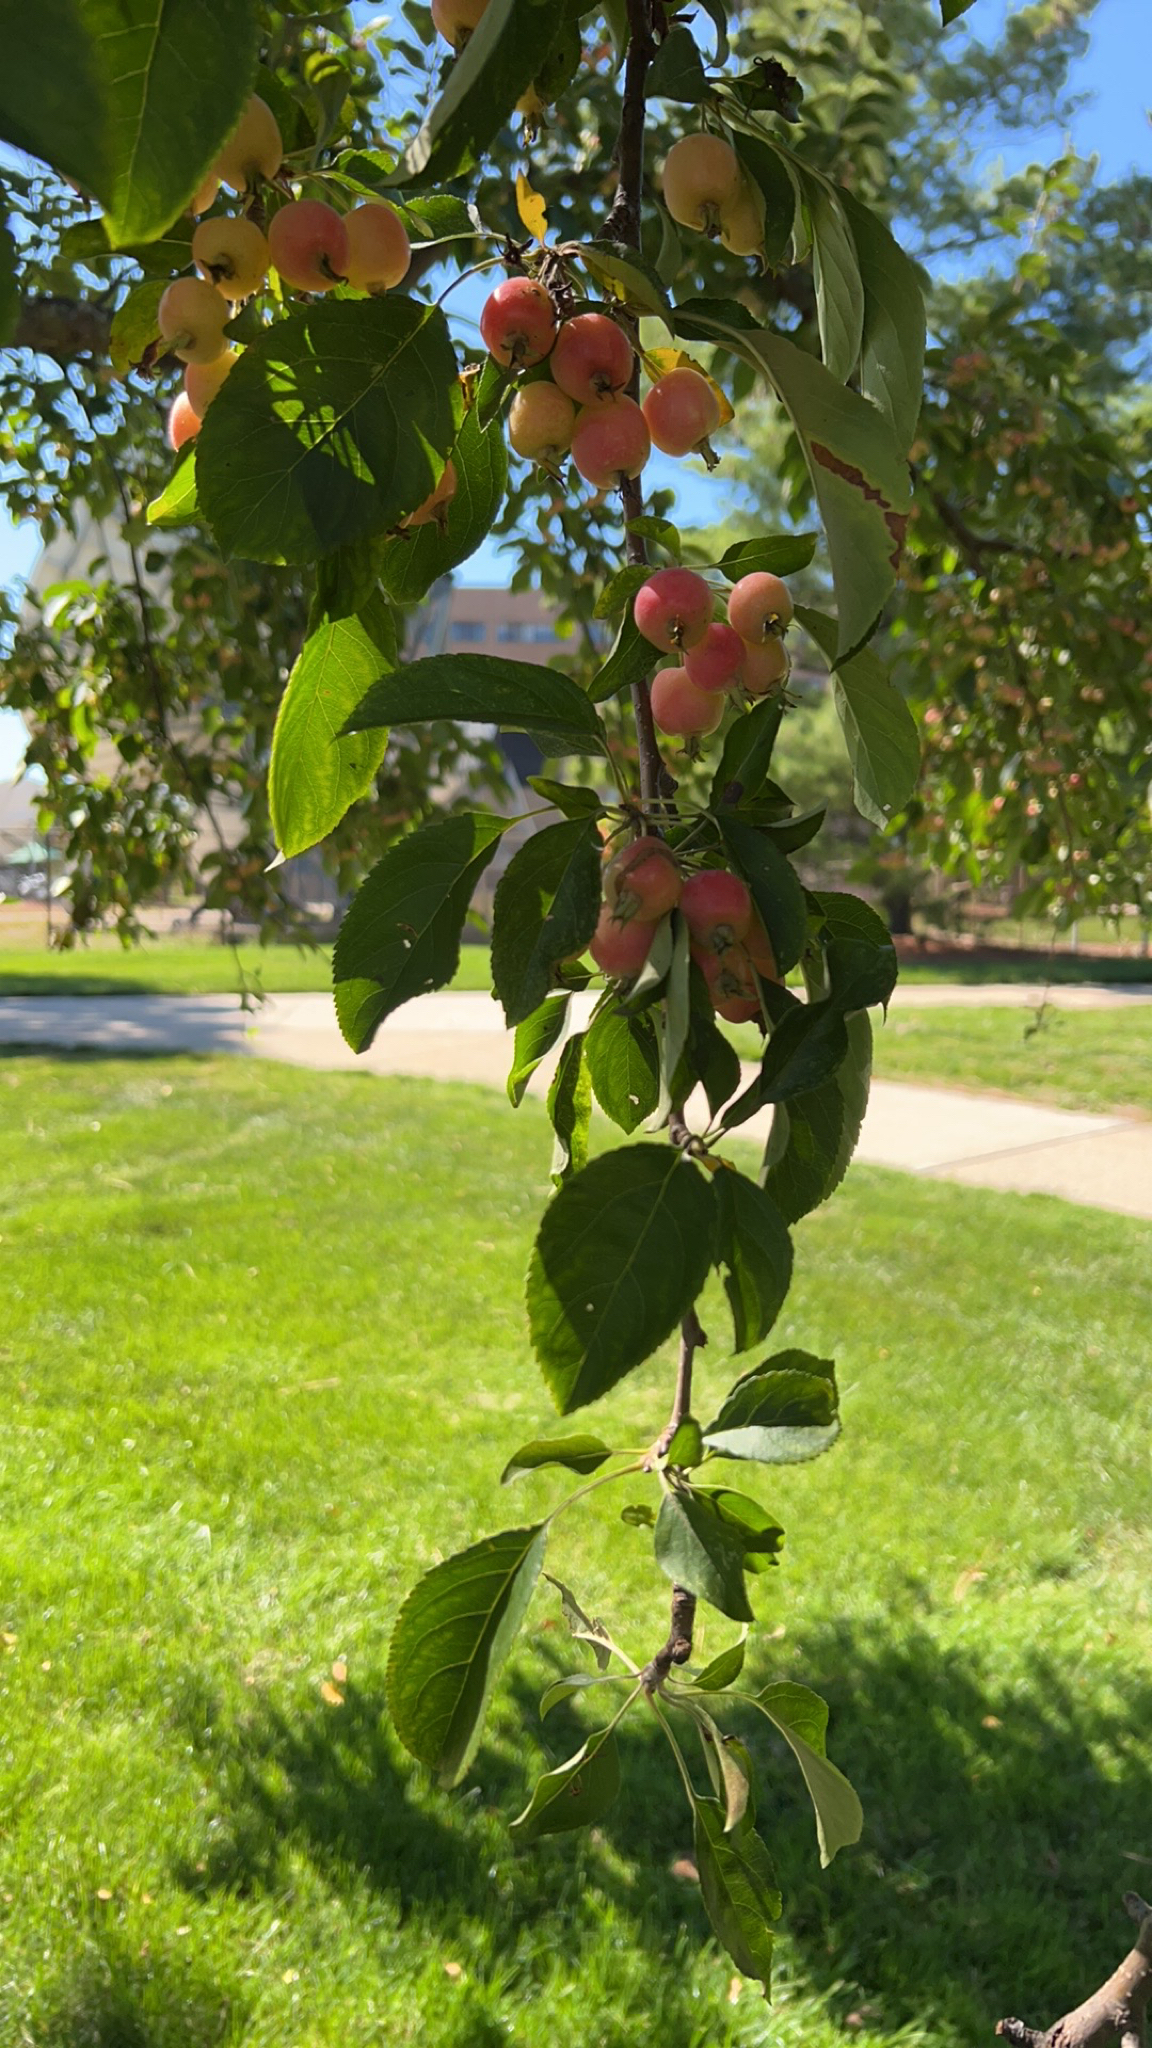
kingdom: Plantae
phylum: Tracheophyta
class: Magnoliopsida
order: Rosales
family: Rosaceae
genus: Malus
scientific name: Malus domestica
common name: Apple
